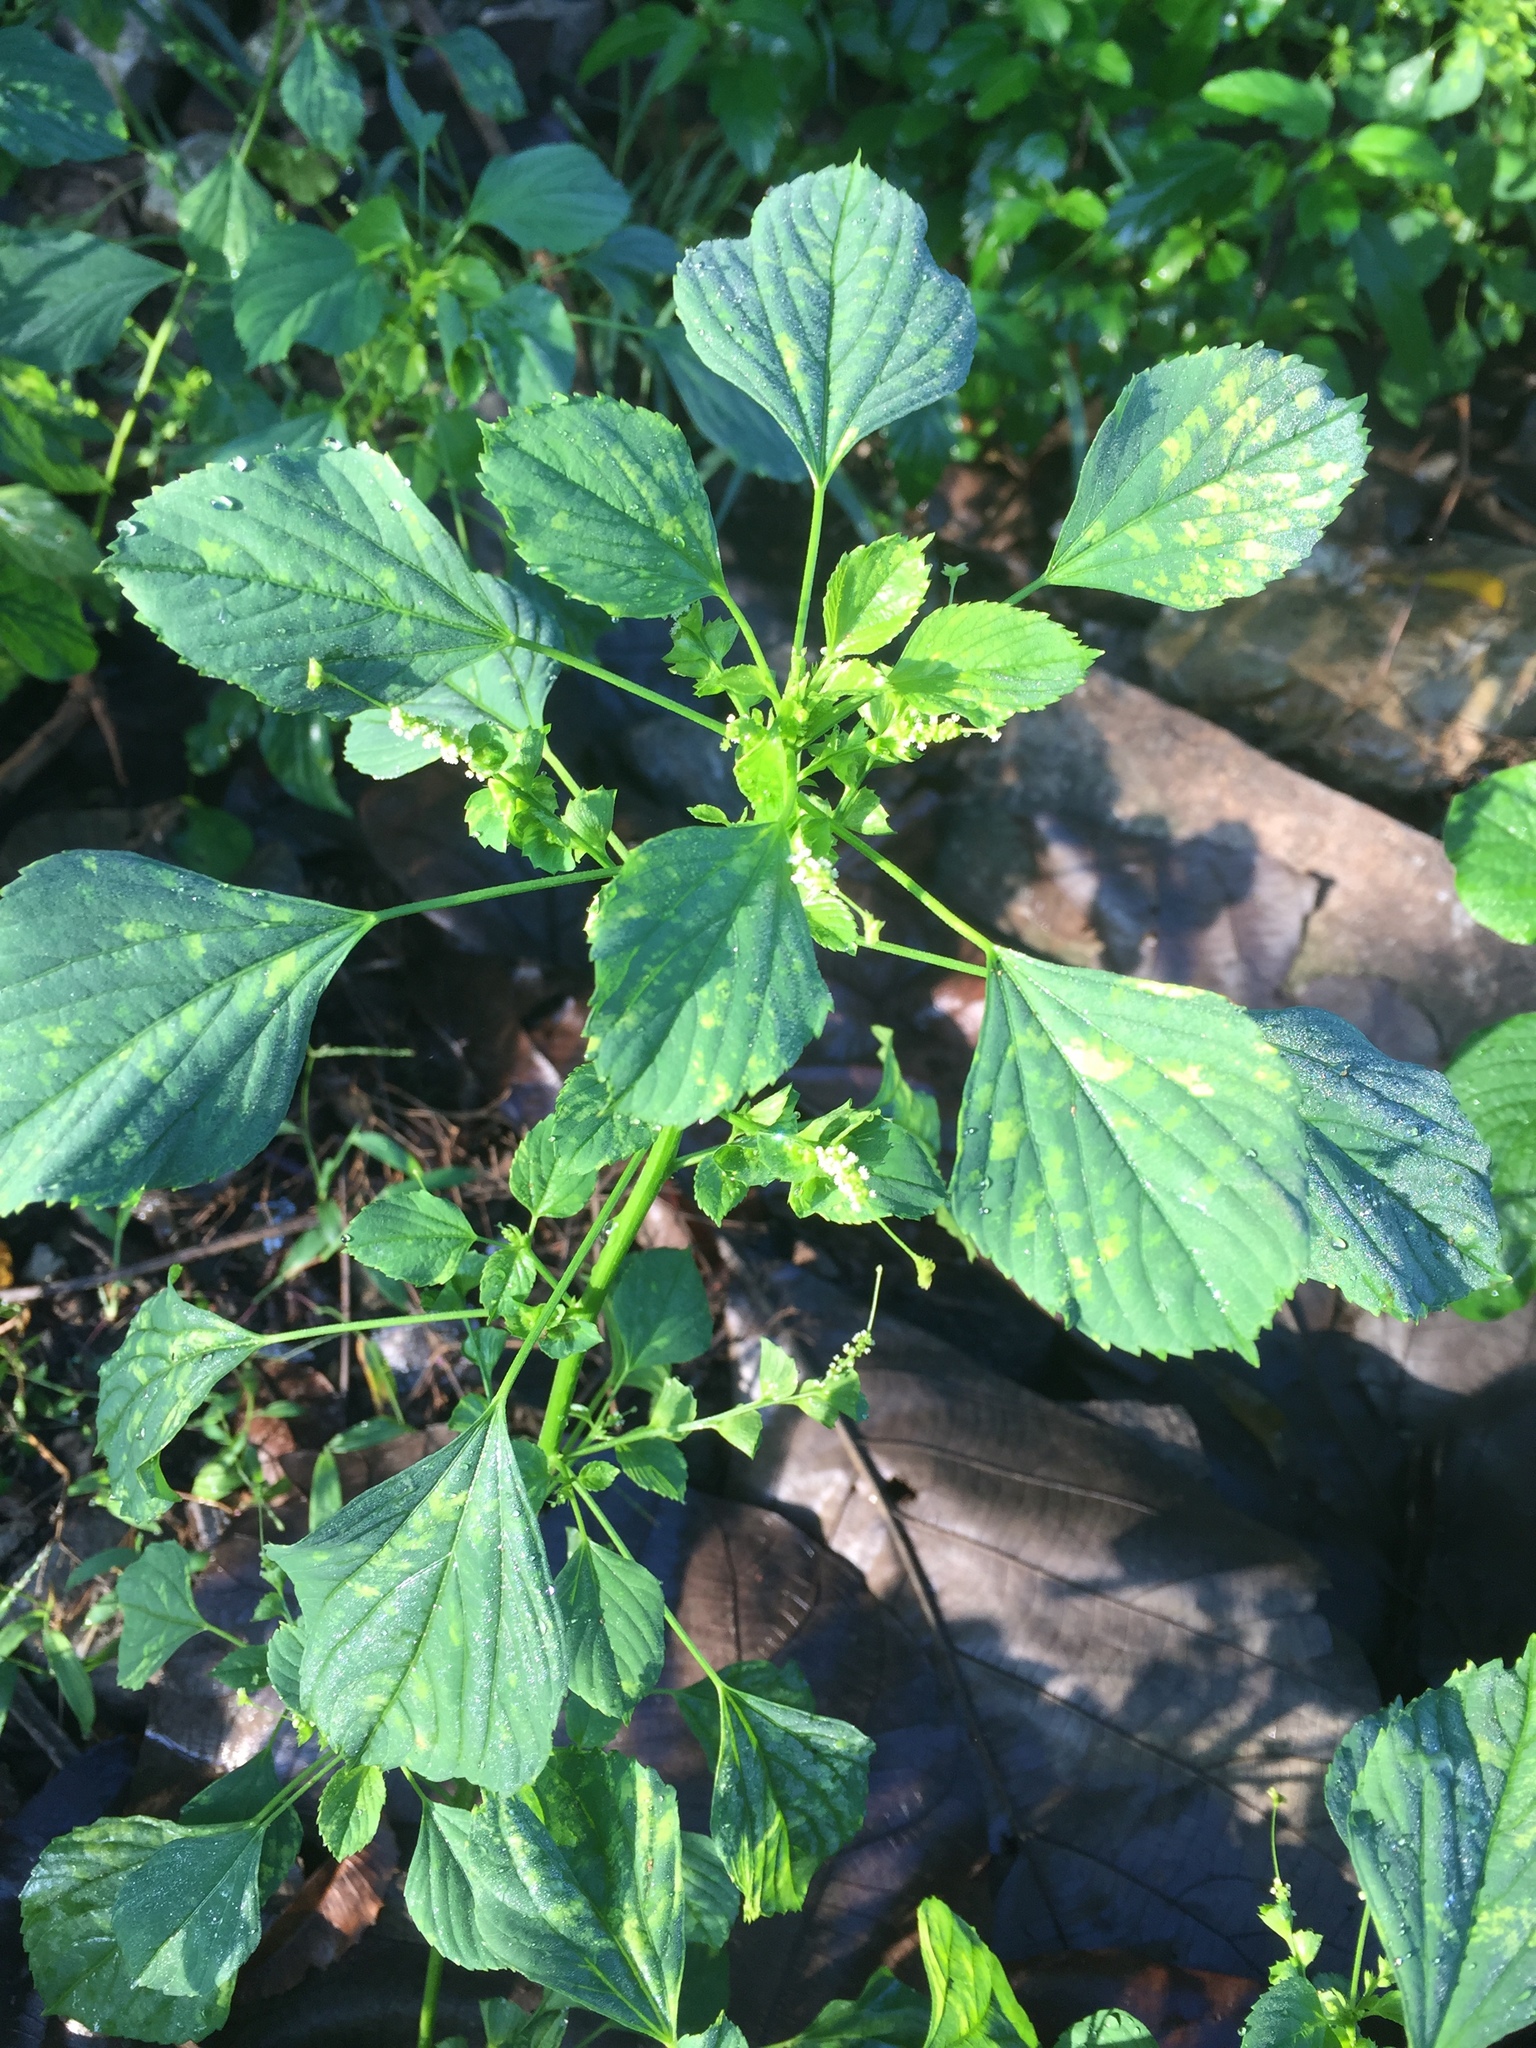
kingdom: Plantae
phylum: Tracheophyta
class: Magnoliopsida
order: Malpighiales
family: Euphorbiaceae
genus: Acalypha
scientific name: Acalypha indica
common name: Indian acalypha
